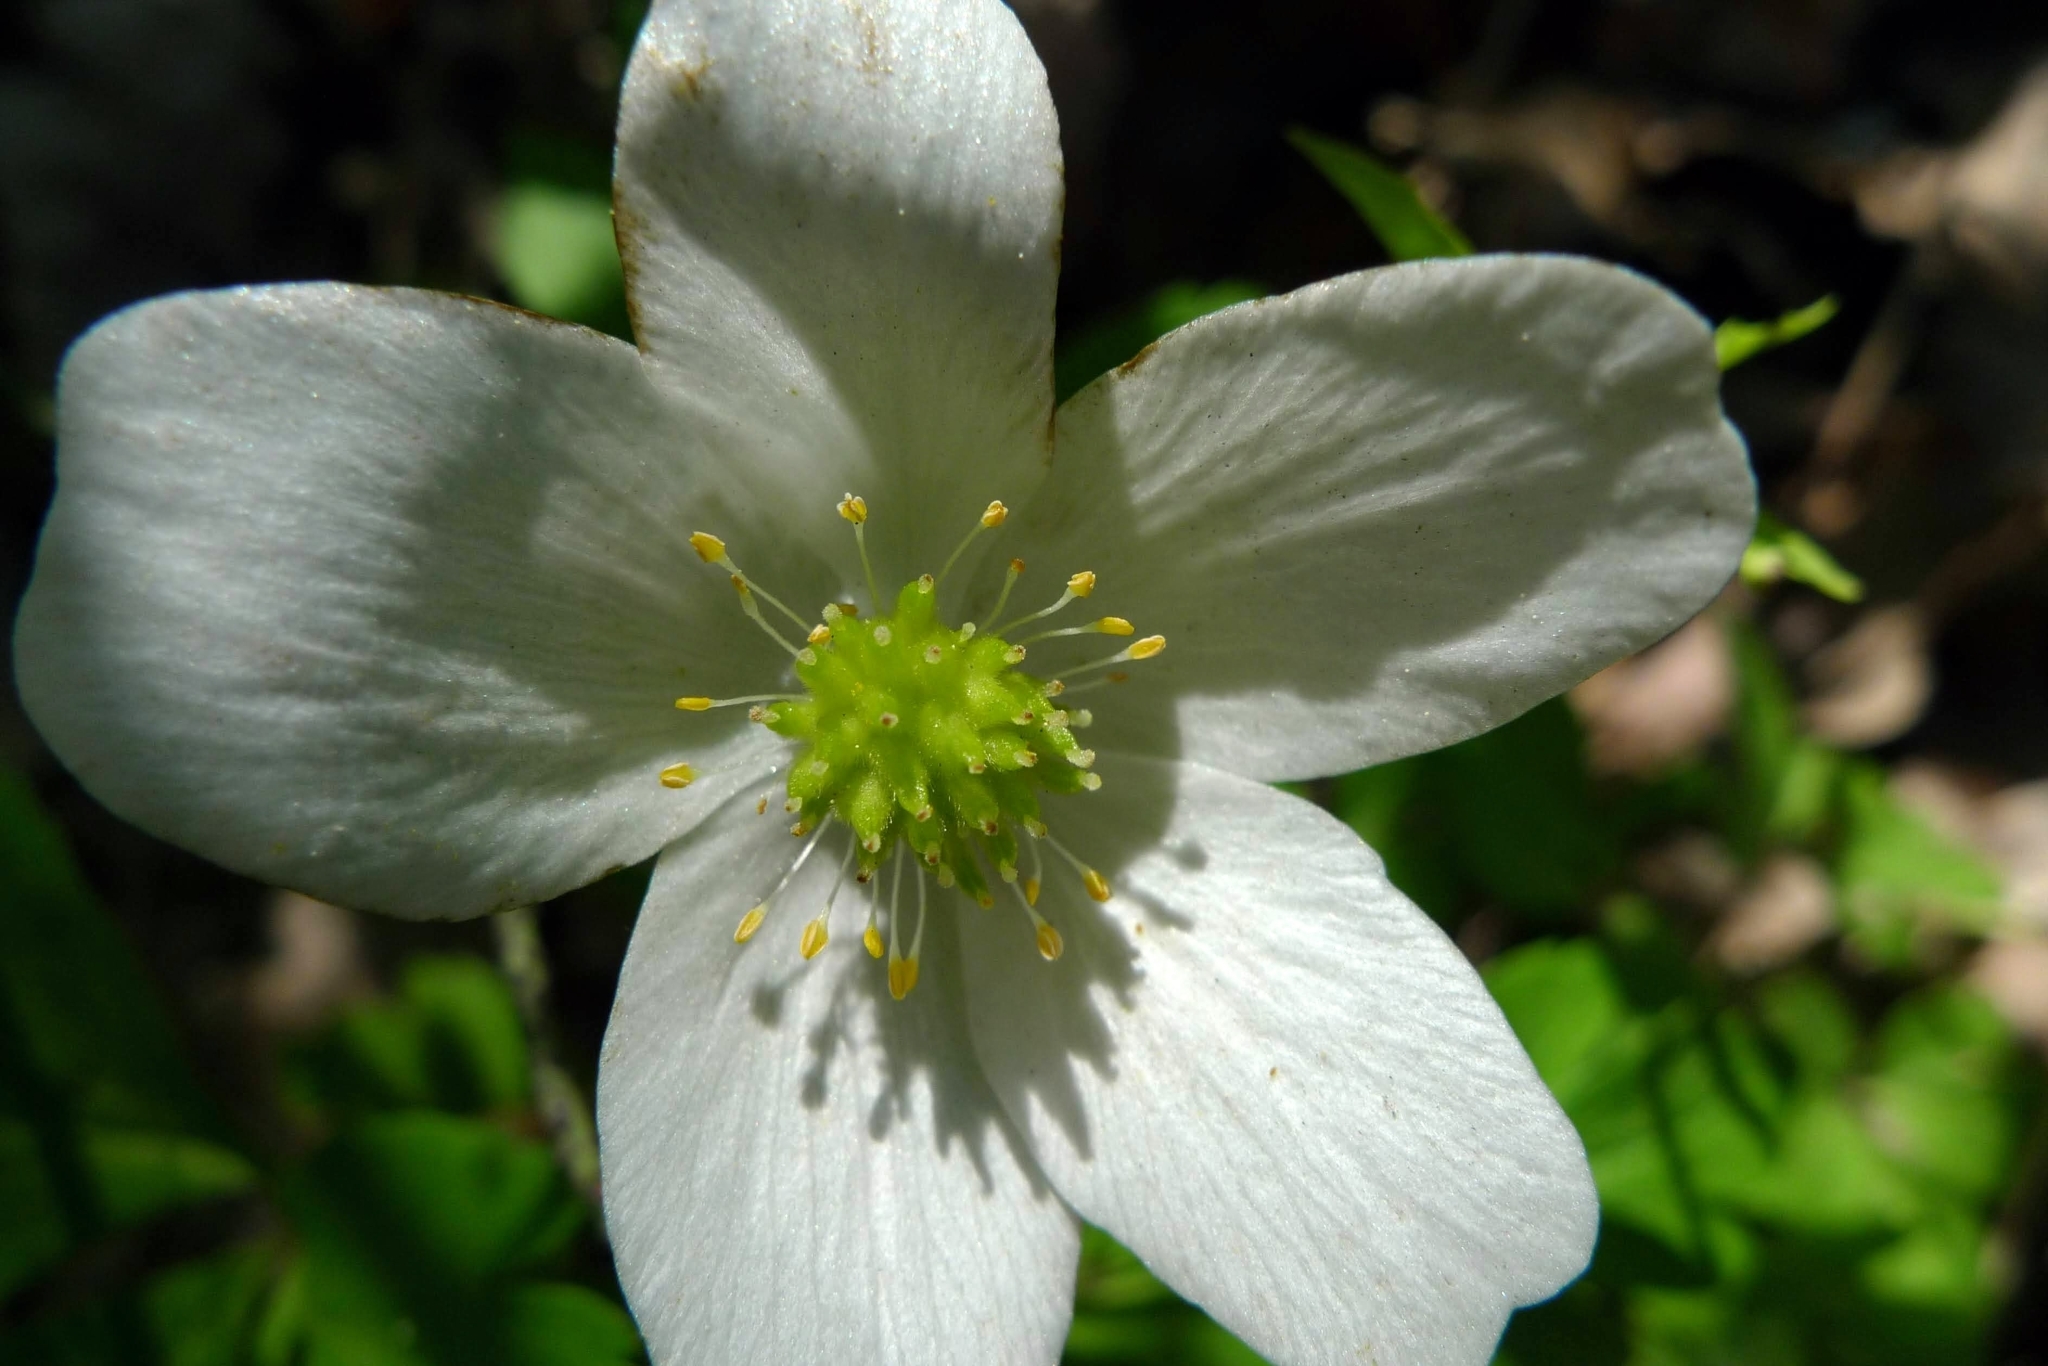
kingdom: Plantae
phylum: Tracheophyta
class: Magnoliopsida
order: Ranunculales
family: Ranunculaceae
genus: Anemone
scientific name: Anemone nemorosa
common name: Wood anemone
